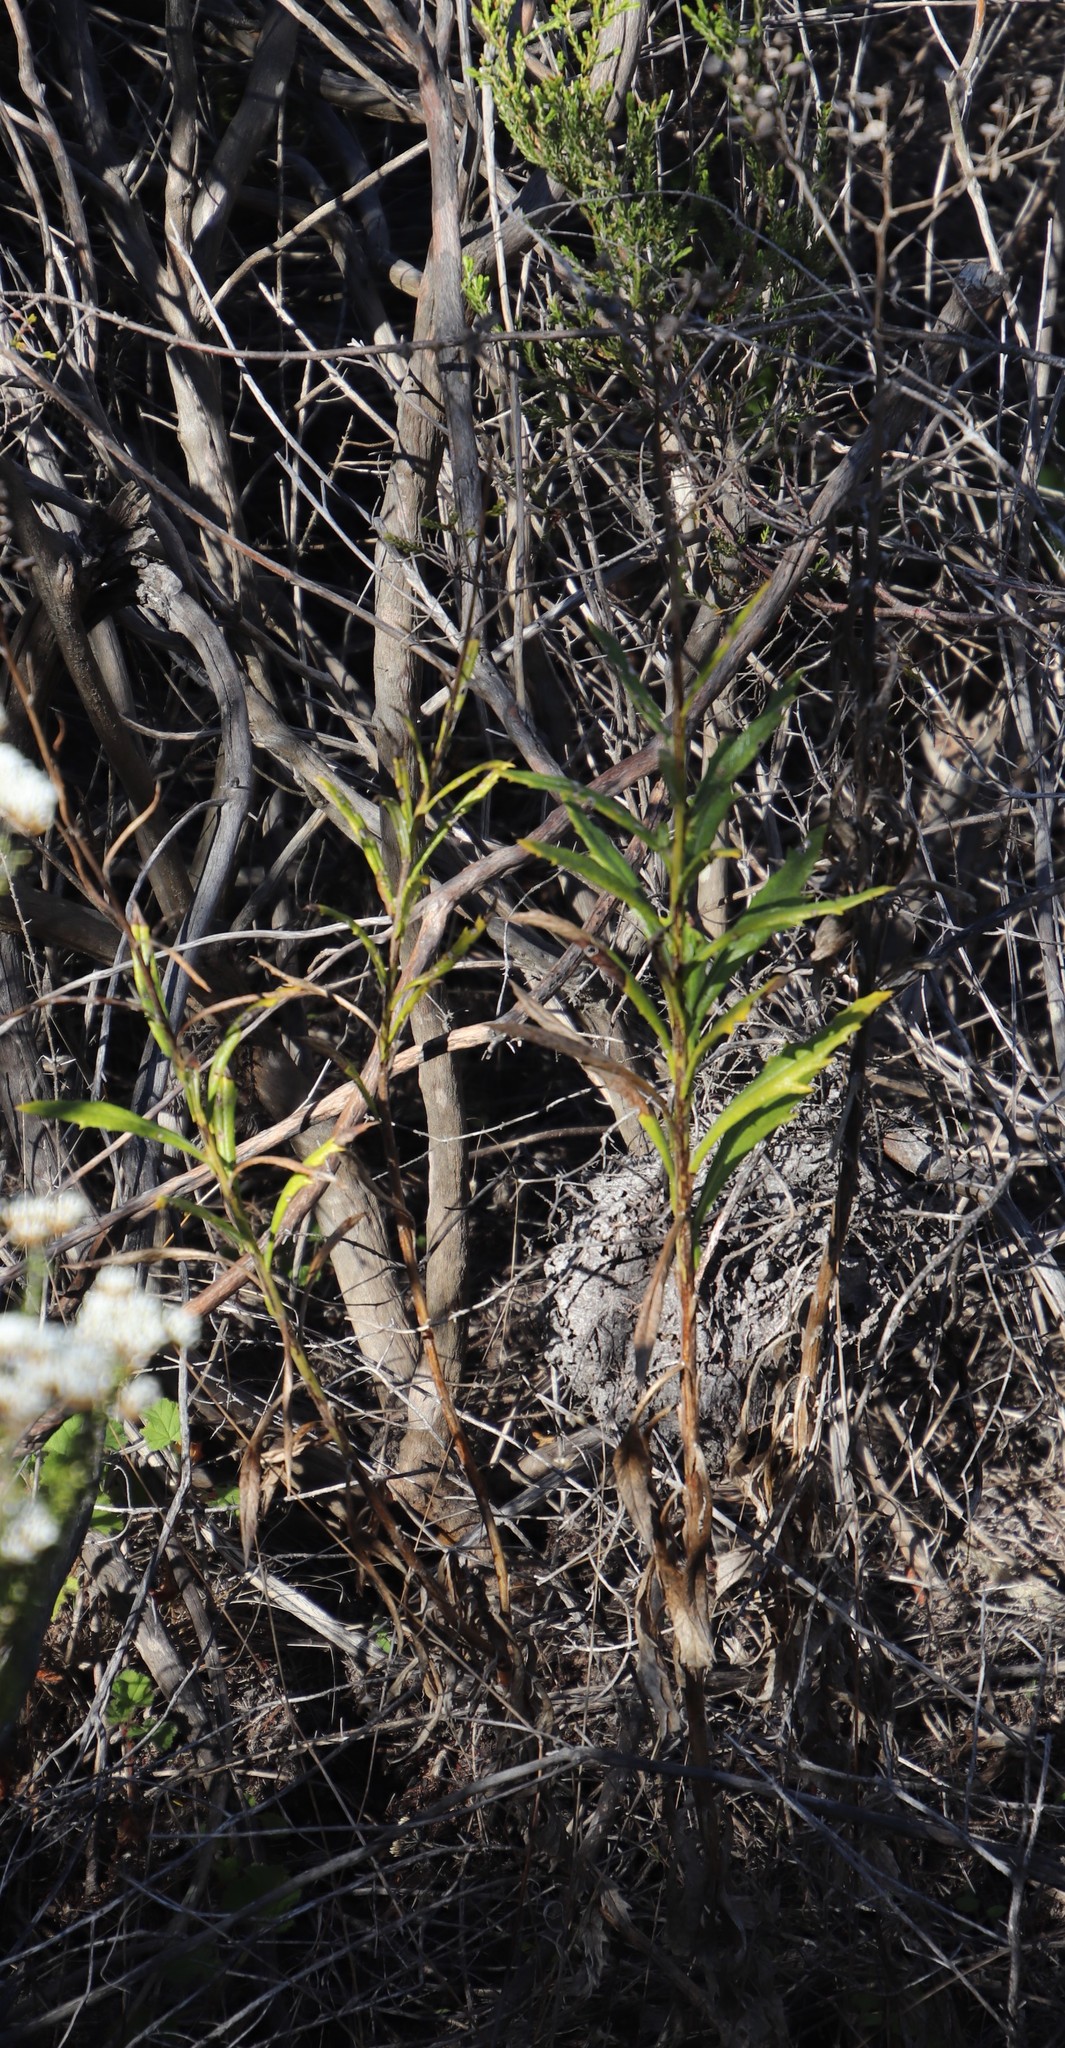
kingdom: Plantae
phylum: Tracheophyta
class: Magnoliopsida
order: Asterales
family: Asteraceae
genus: Senecio
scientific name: Senecio pterophorus
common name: Shoddy ragwort
